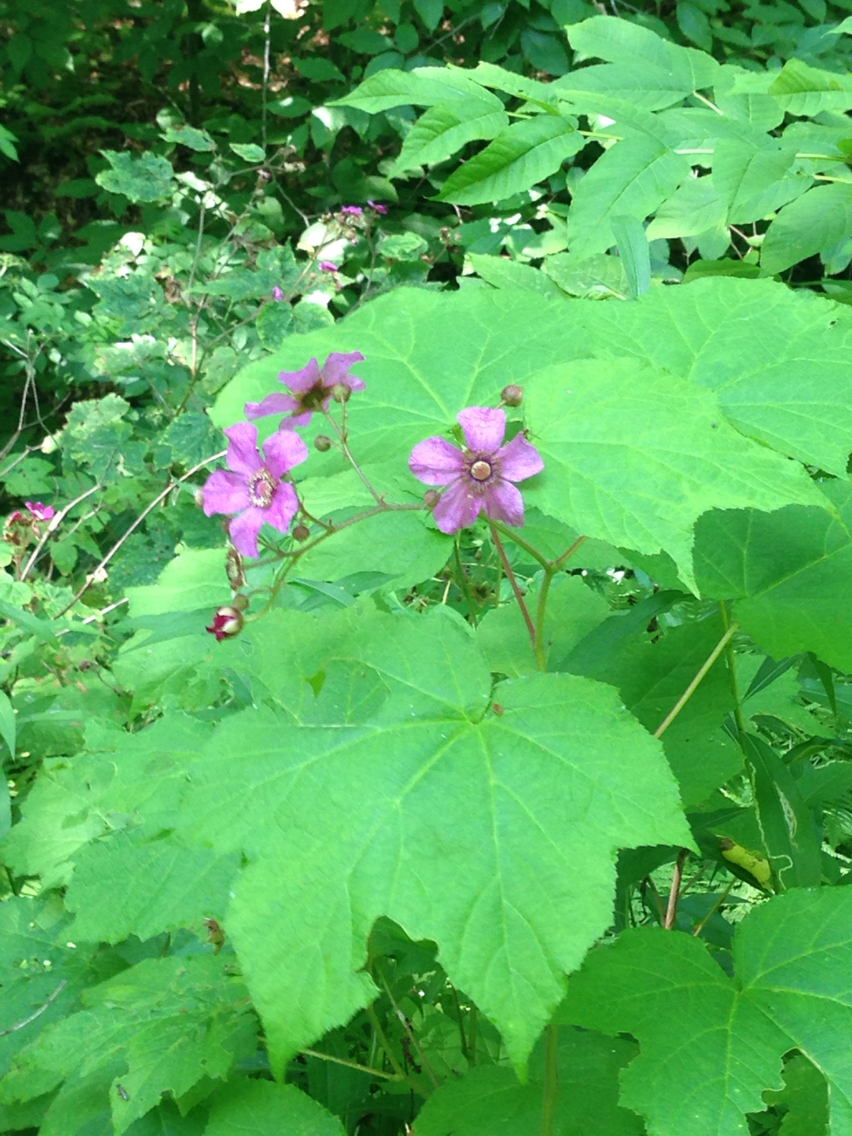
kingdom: Plantae
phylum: Tracheophyta
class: Magnoliopsida
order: Rosales
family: Rosaceae
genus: Rubus
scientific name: Rubus odoratus
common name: Purple-flowered raspberry
